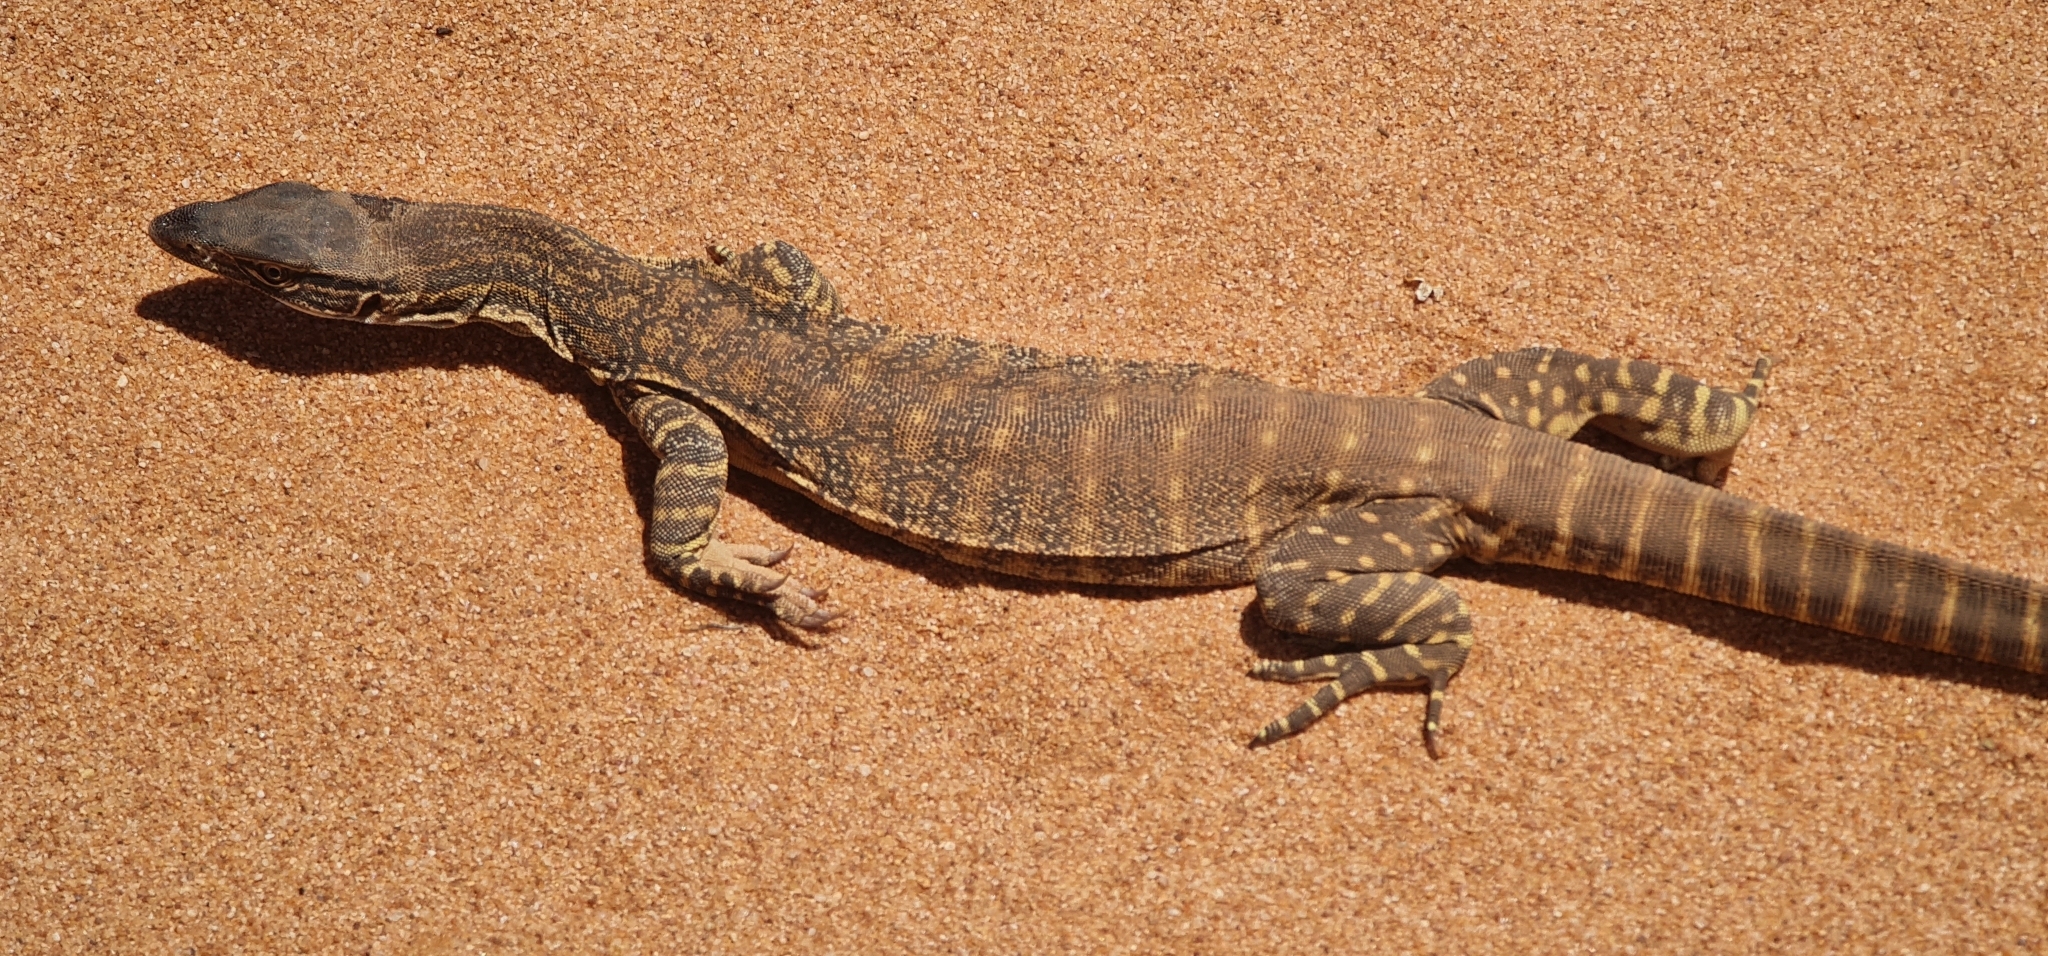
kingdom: Animalia
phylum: Chordata
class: Squamata
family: Varanidae
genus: Varanus
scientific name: Varanus gouldii
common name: Gould's goanna
